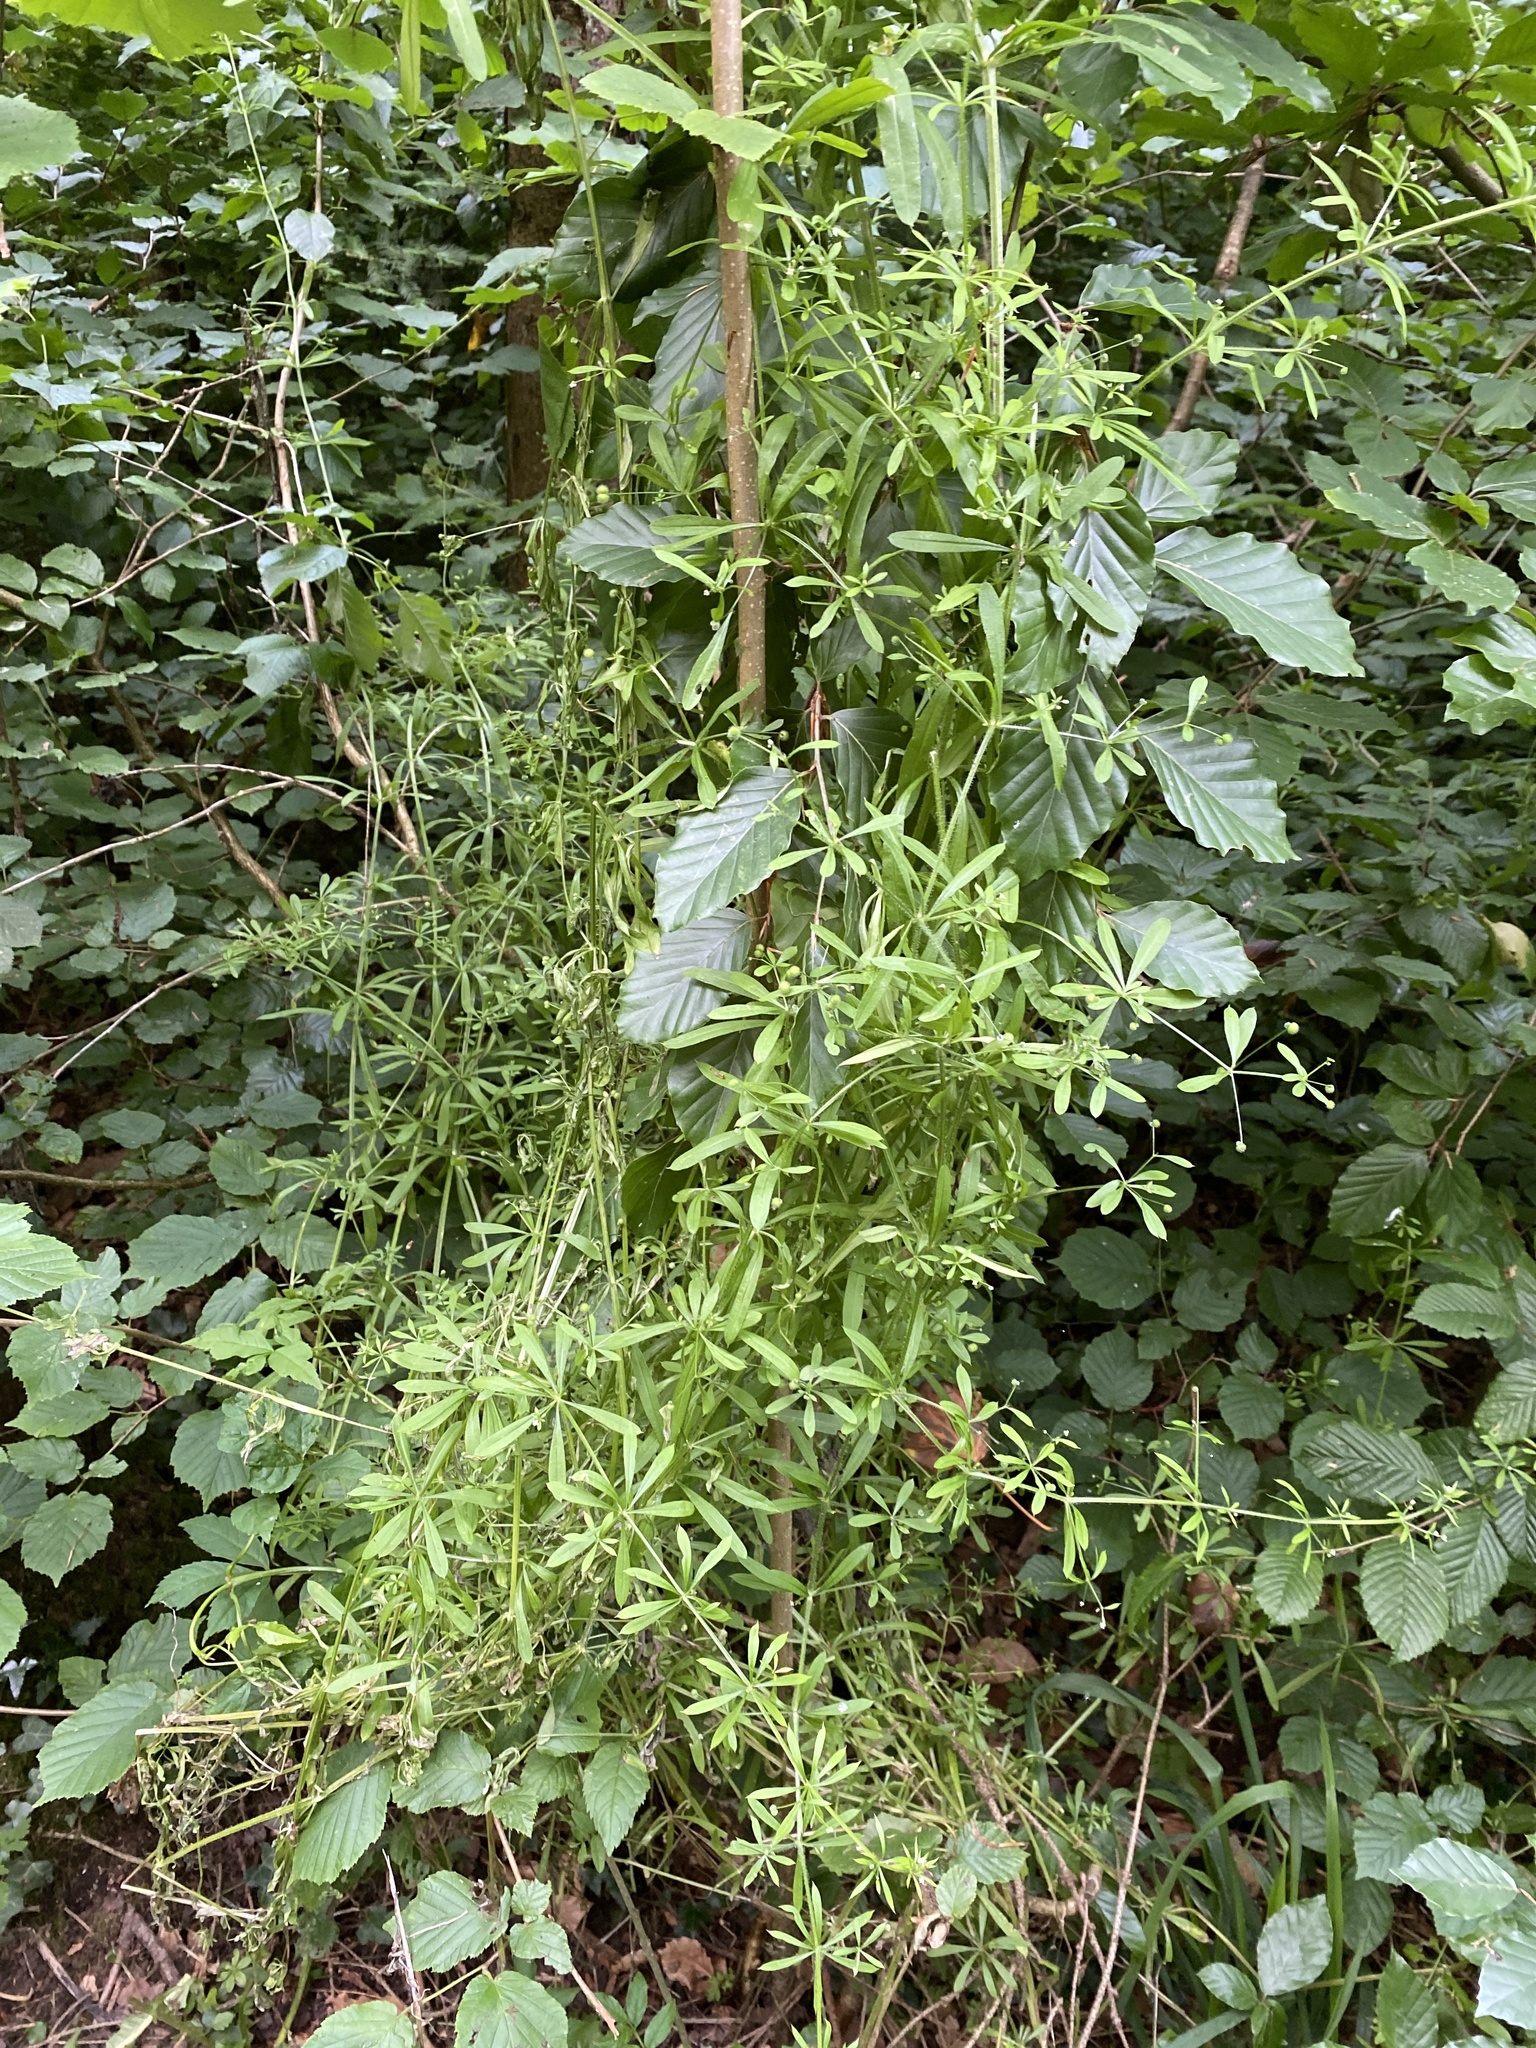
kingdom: Plantae
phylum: Tracheophyta
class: Magnoliopsida
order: Gentianales
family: Rubiaceae
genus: Galium
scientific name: Galium aparine
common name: Cleavers
